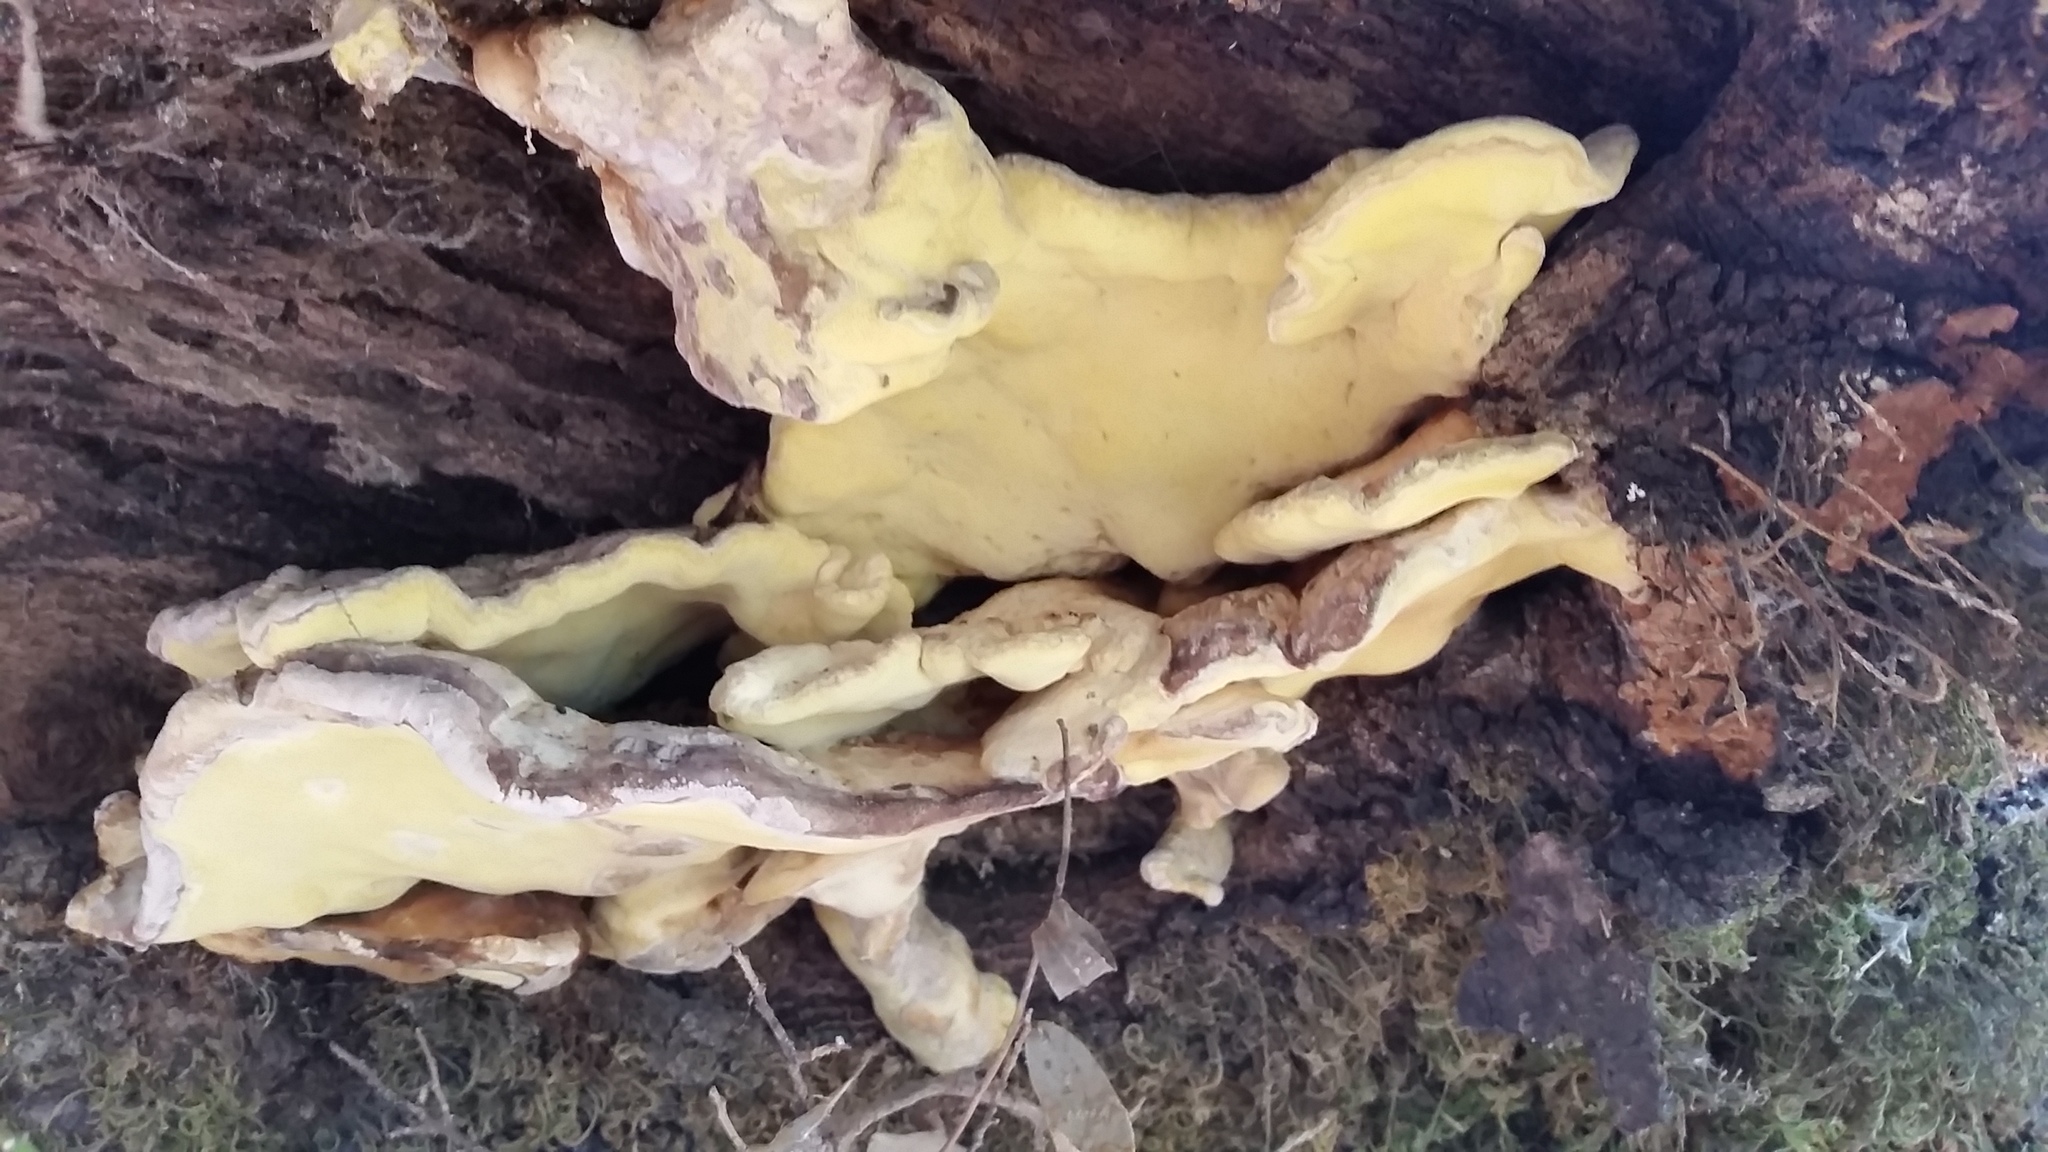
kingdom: Fungi
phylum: Basidiomycota
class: Agaricomycetes
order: Polyporales
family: Laetiporaceae
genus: Laetiporus
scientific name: Laetiporus gilbertsonii
